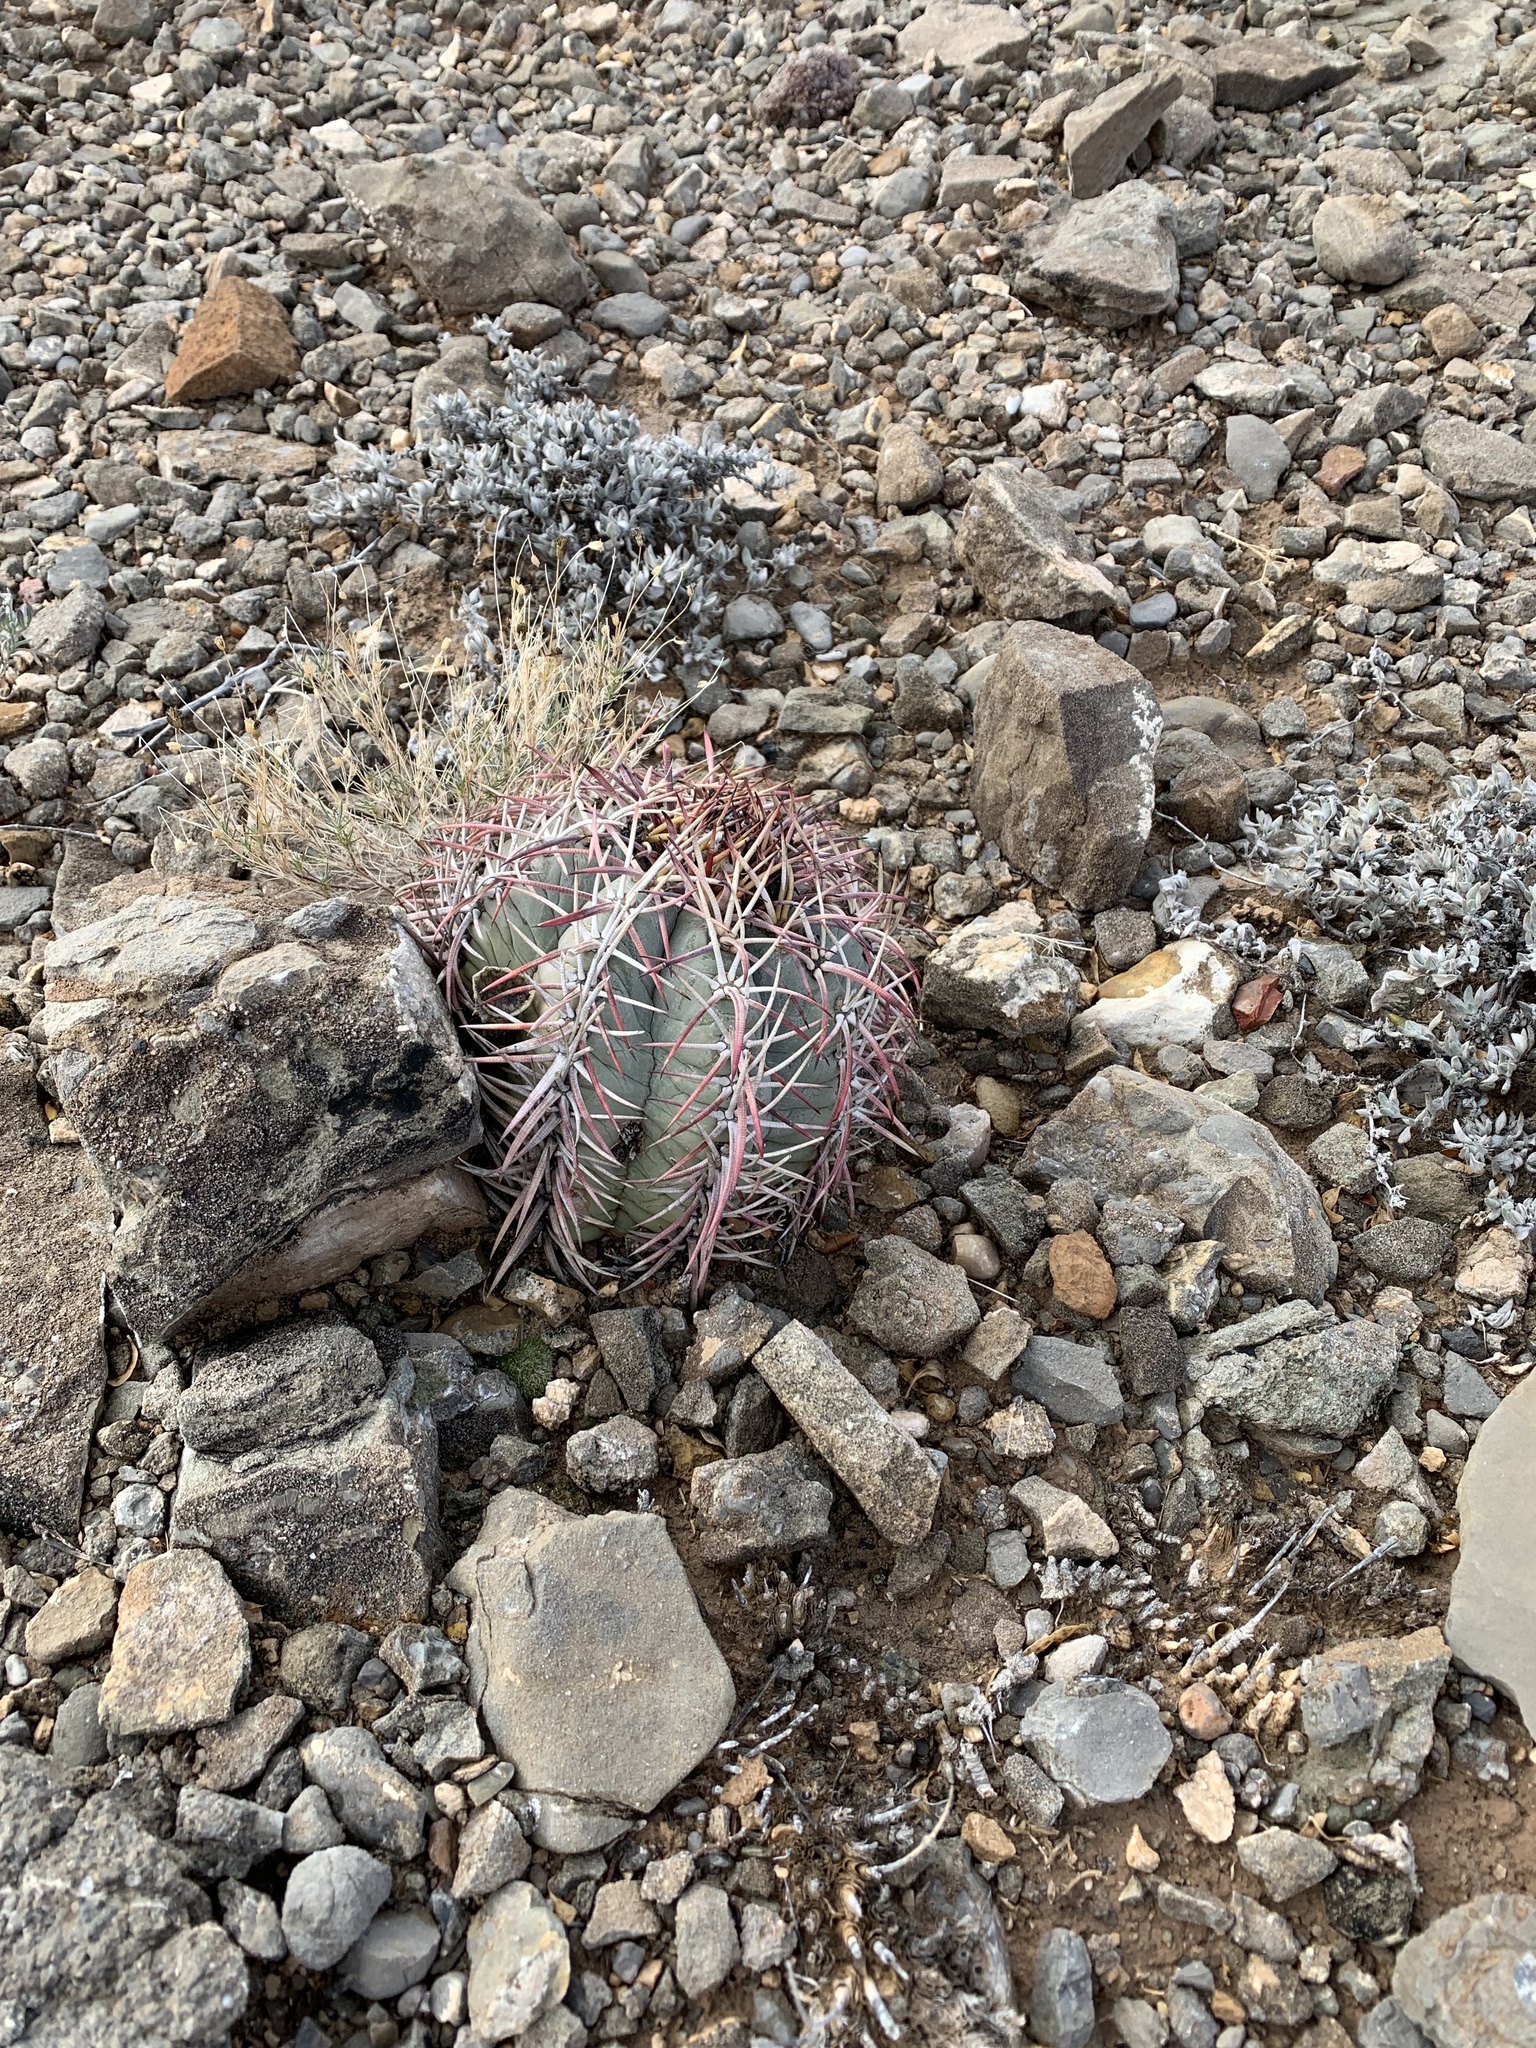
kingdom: Plantae
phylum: Tracheophyta
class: Magnoliopsida
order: Caryophyllales
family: Cactaceae
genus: Echinocactus
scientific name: Echinocactus horizonthalonius
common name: Devilshead
